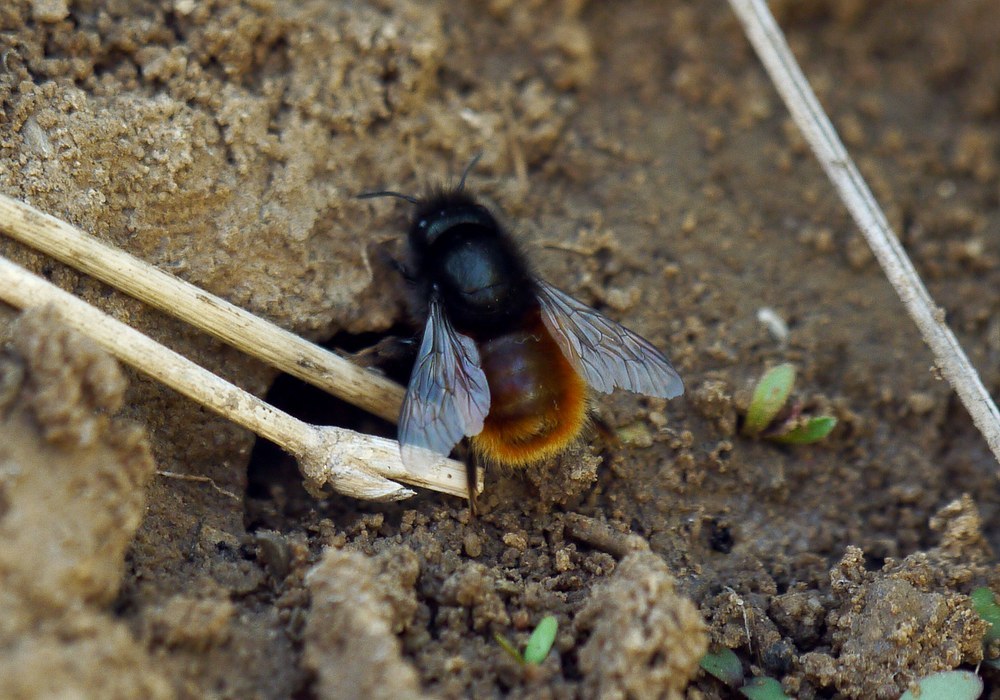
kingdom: Animalia
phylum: Arthropoda
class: Insecta
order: Hymenoptera
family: Megachilidae
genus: Osmia
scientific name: Osmia cornuta
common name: Mason bee
